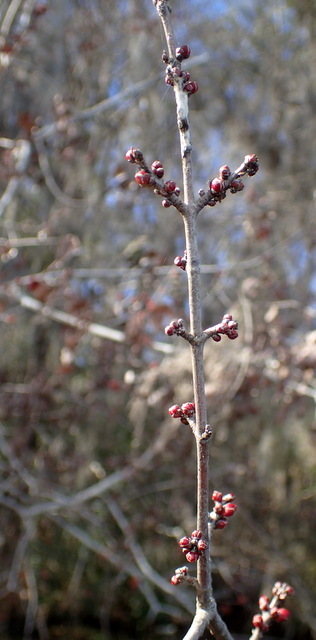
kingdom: Plantae
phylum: Tracheophyta
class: Magnoliopsida
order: Sapindales
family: Sapindaceae
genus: Acer
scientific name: Acer rubrum
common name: Red maple
